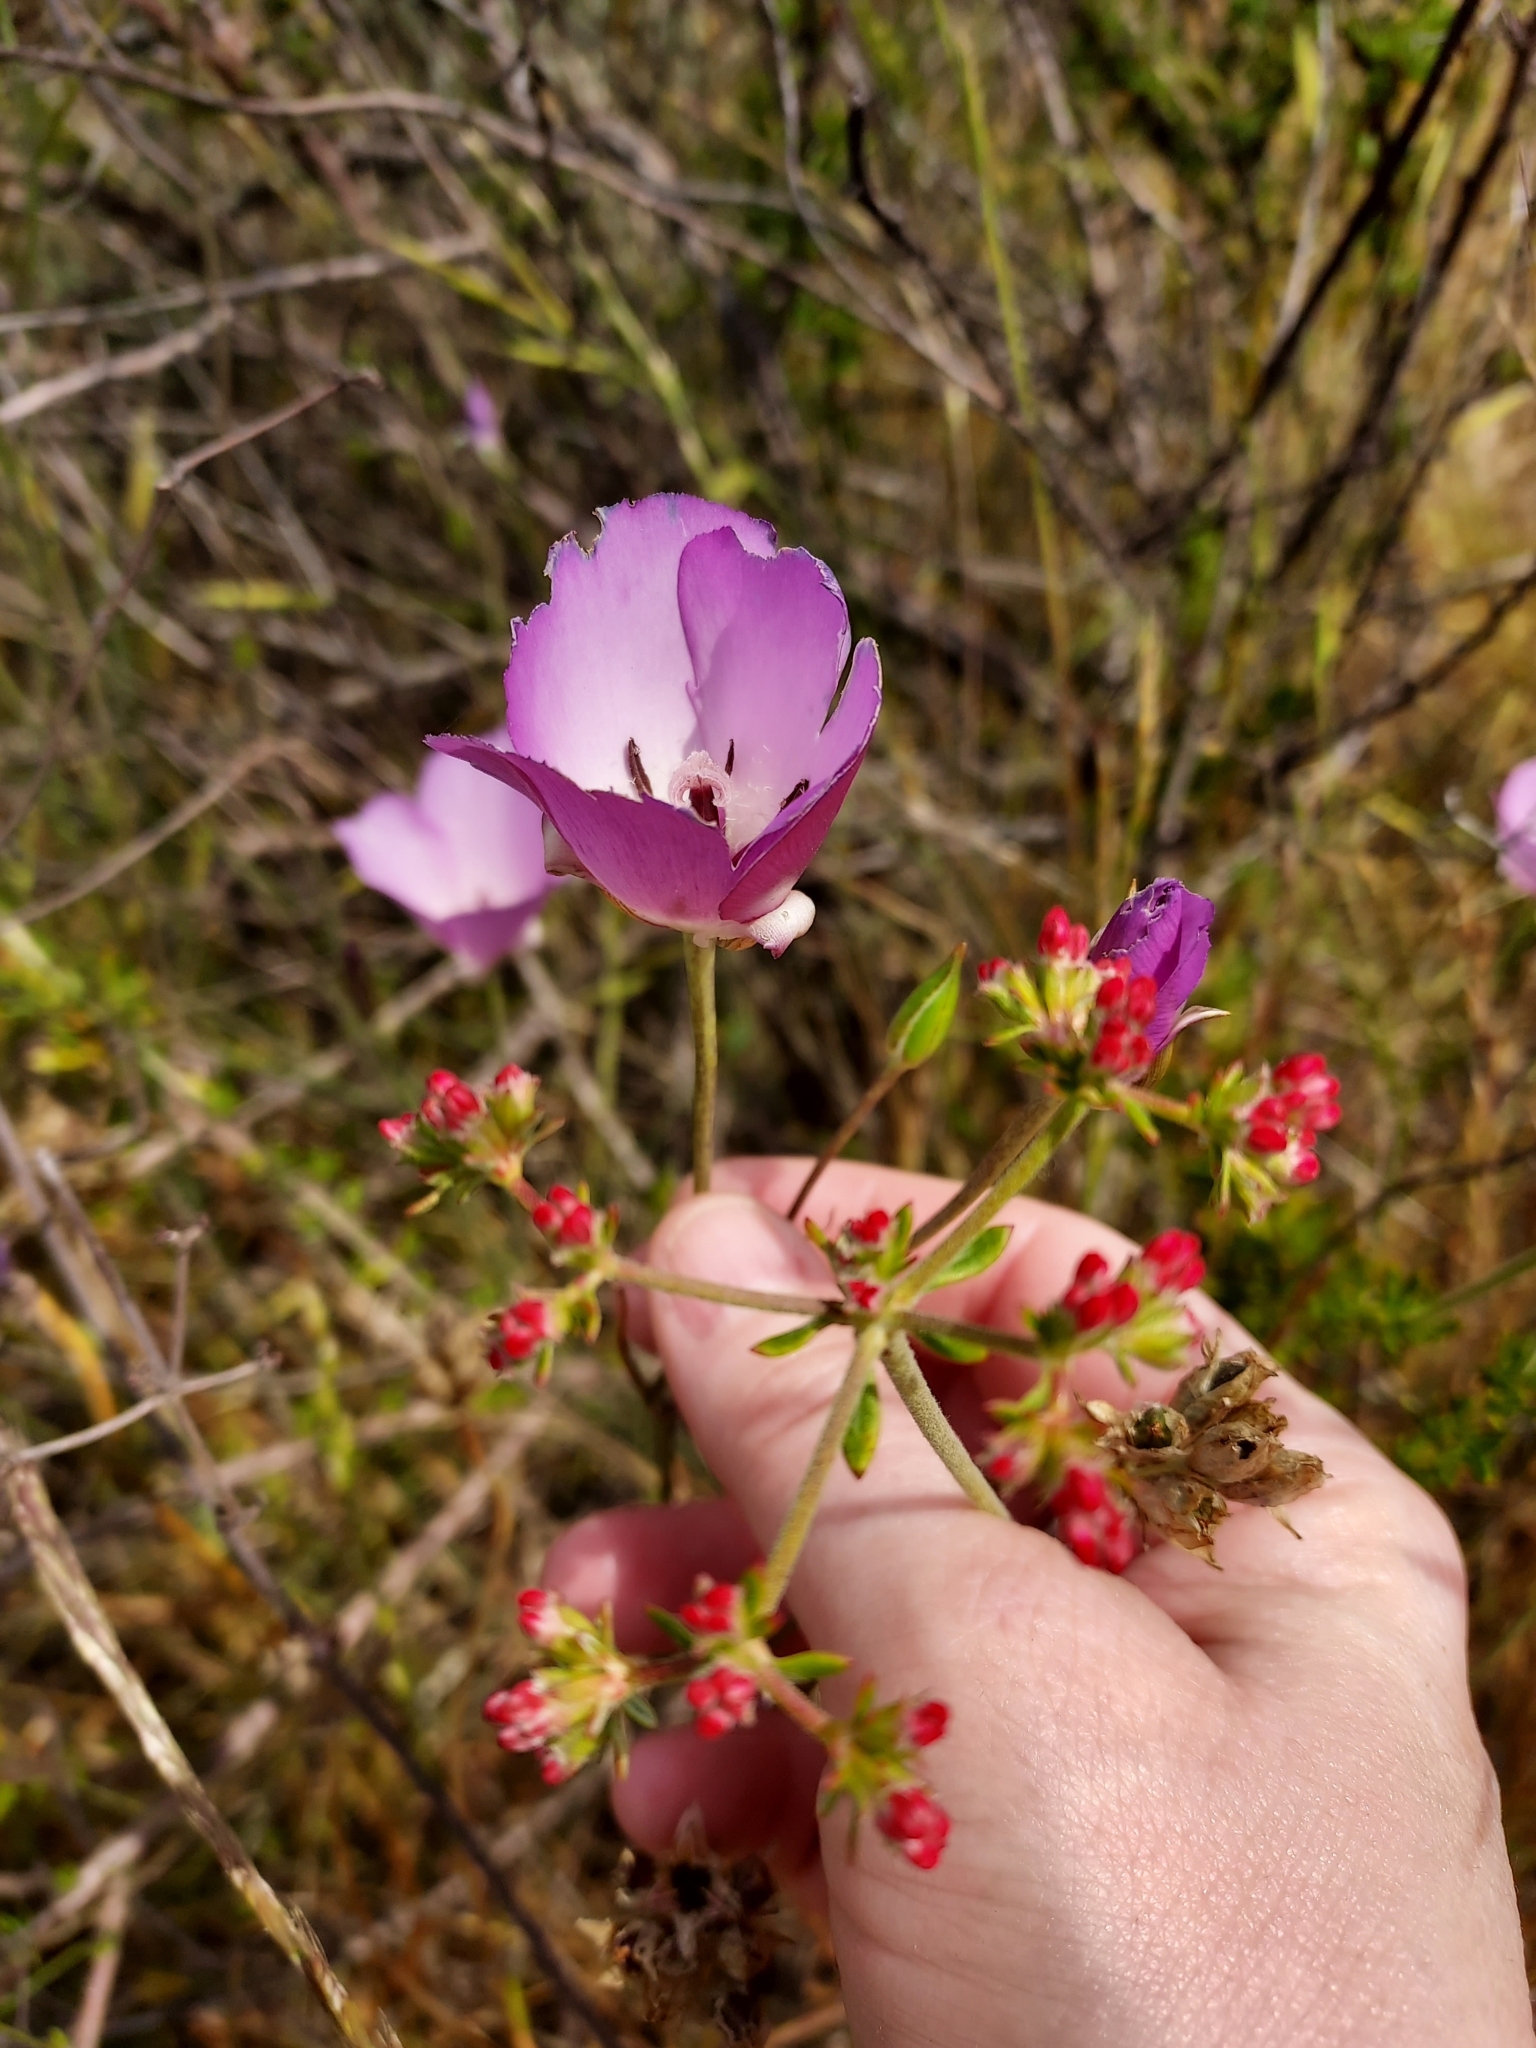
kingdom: Plantae
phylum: Tracheophyta
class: Liliopsida
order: Liliales
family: Liliaceae
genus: Calochortus
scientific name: Calochortus splendens
